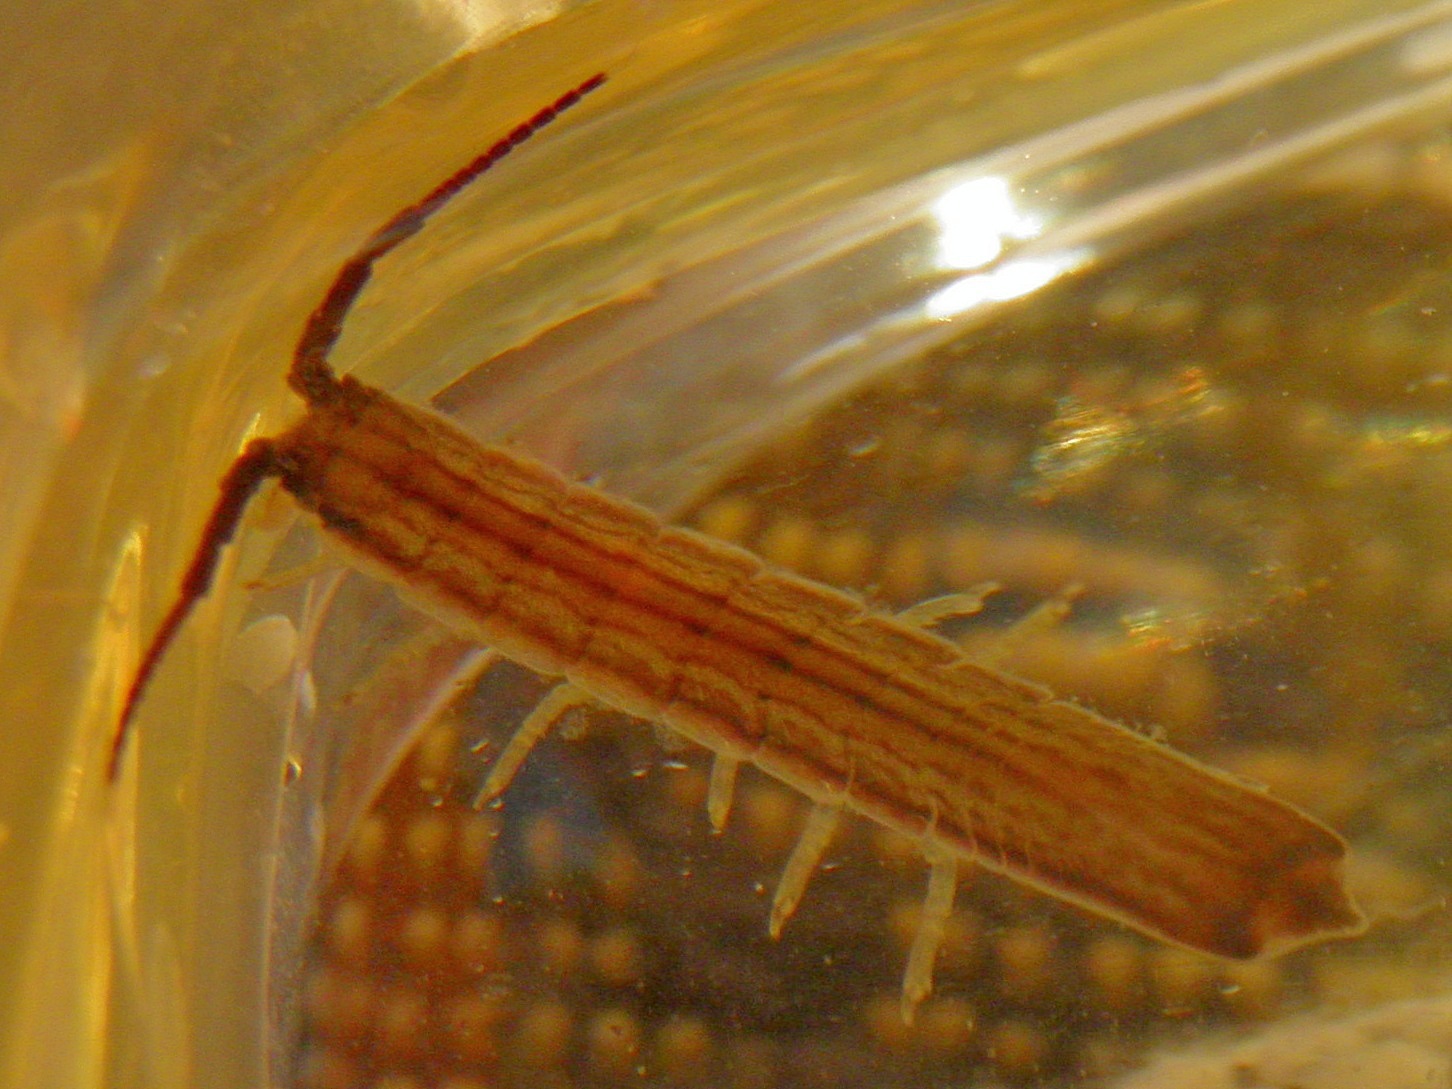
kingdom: Animalia
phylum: Arthropoda
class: Malacostraca
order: Isopoda
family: Idoteidae
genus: Idotea
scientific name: Idotea ochotensis
